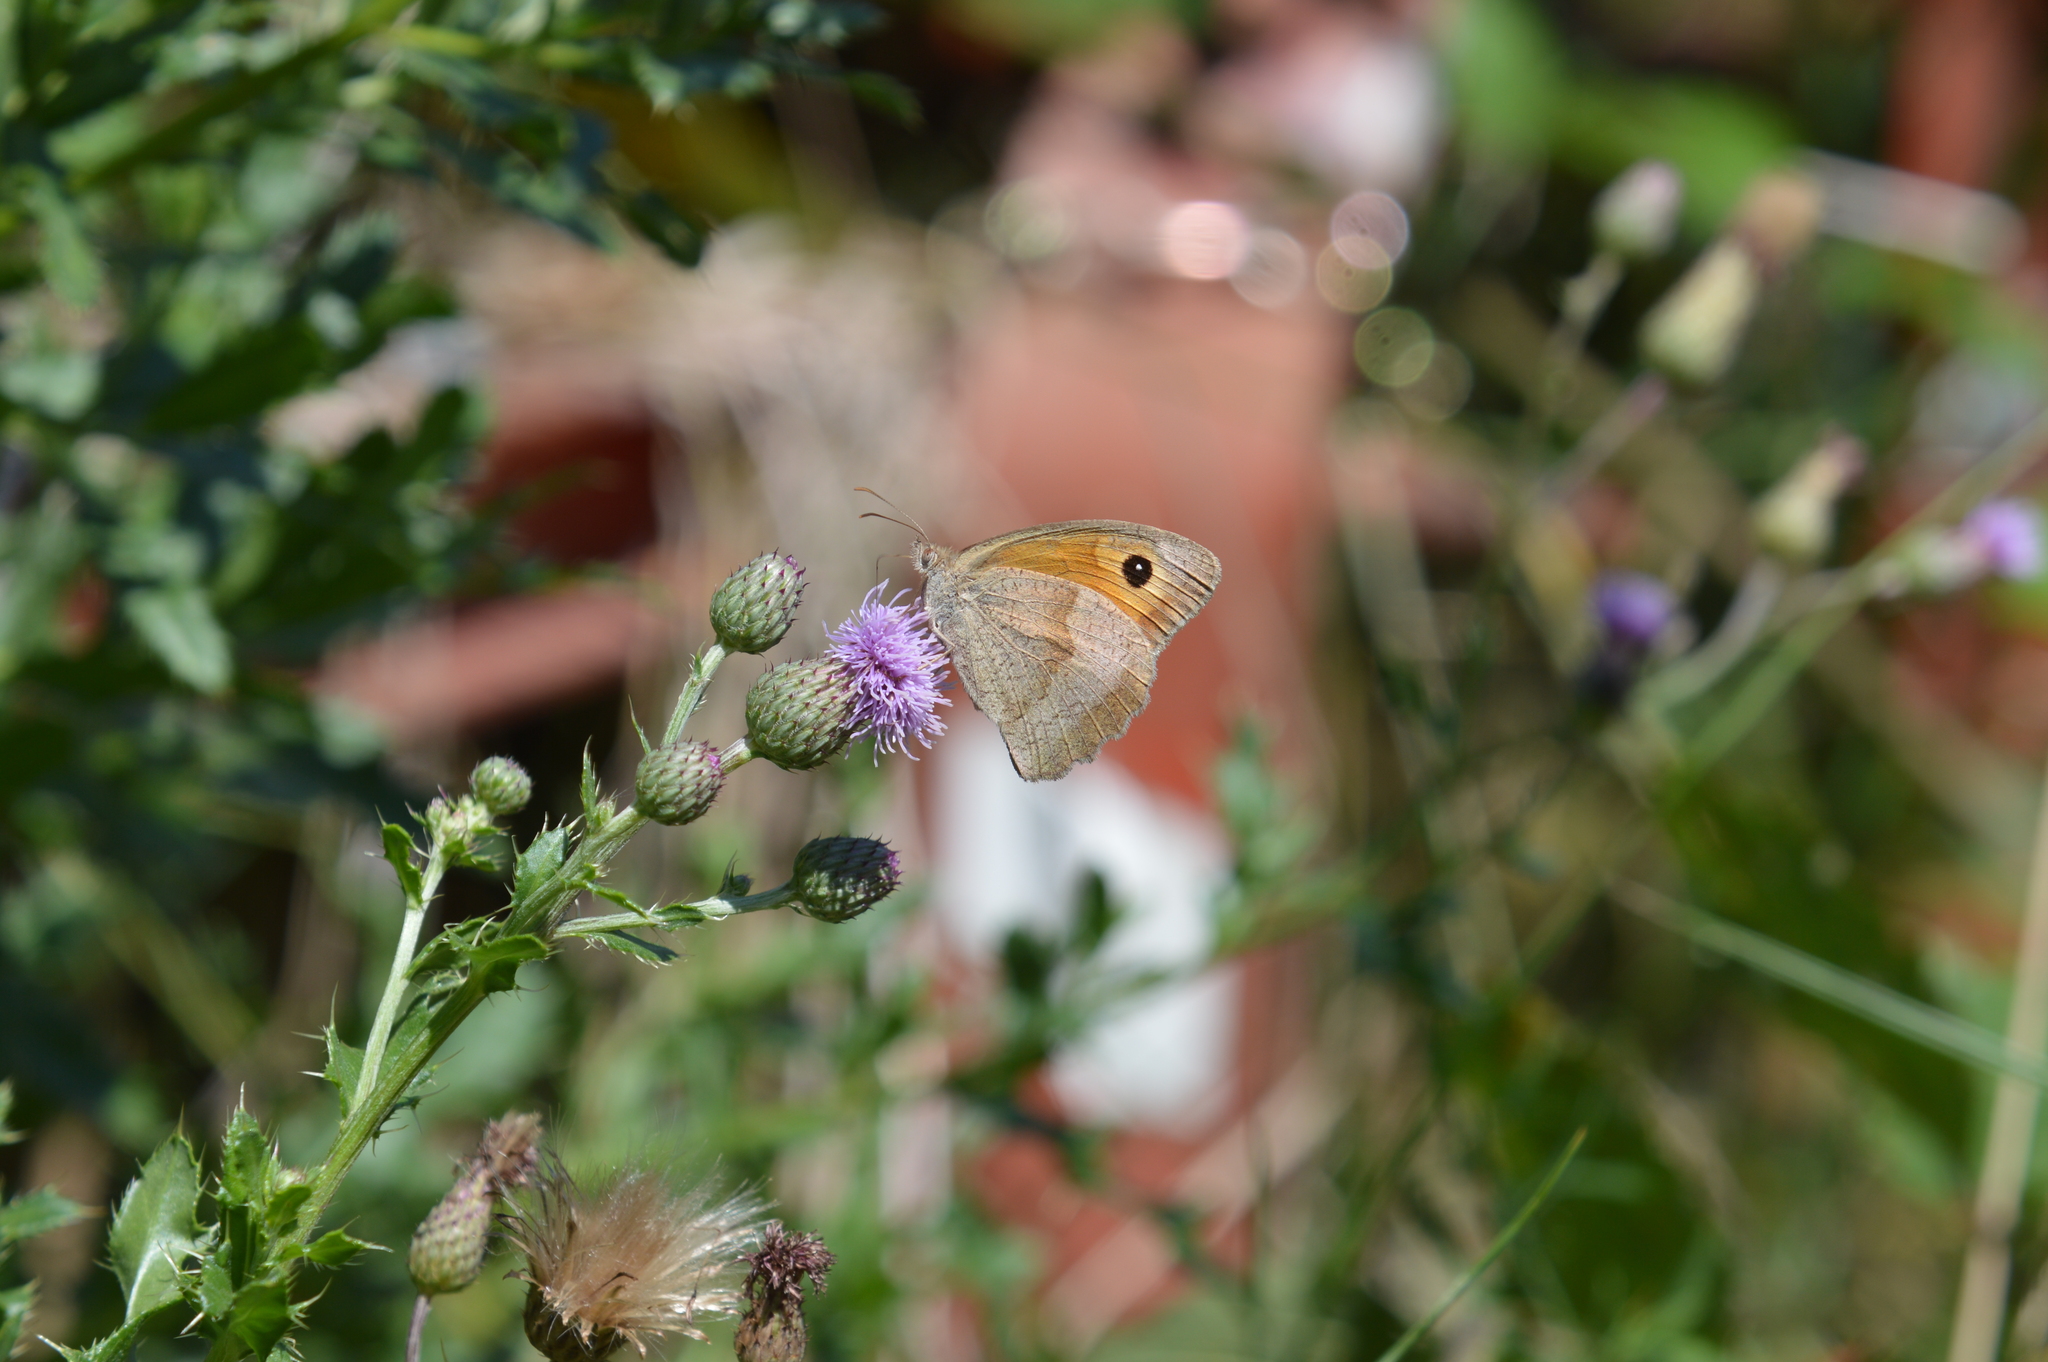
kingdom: Animalia
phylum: Arthropoda
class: Insecta
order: Lepidoptera
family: Nymphalidae
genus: Maniola
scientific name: Maniola jurtina
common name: Meadow brown
